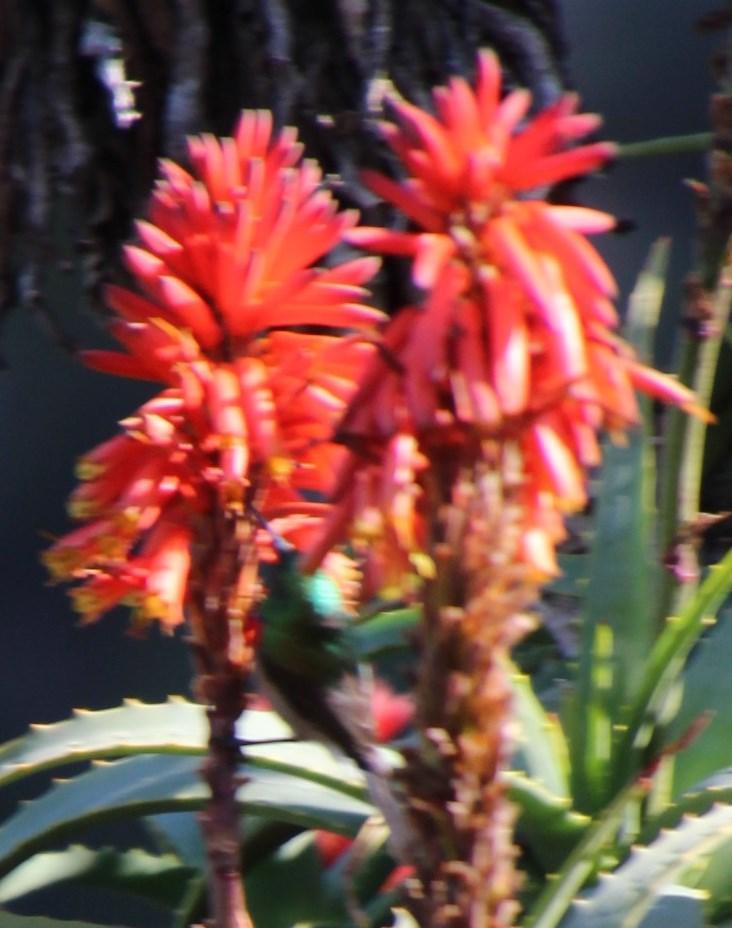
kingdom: Animalia
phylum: Chordata
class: Aves
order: Passeriformes
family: Nectariniidae
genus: Cinnyris
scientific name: Cinnyris chalybeus
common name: Southern double-collared sunbird
